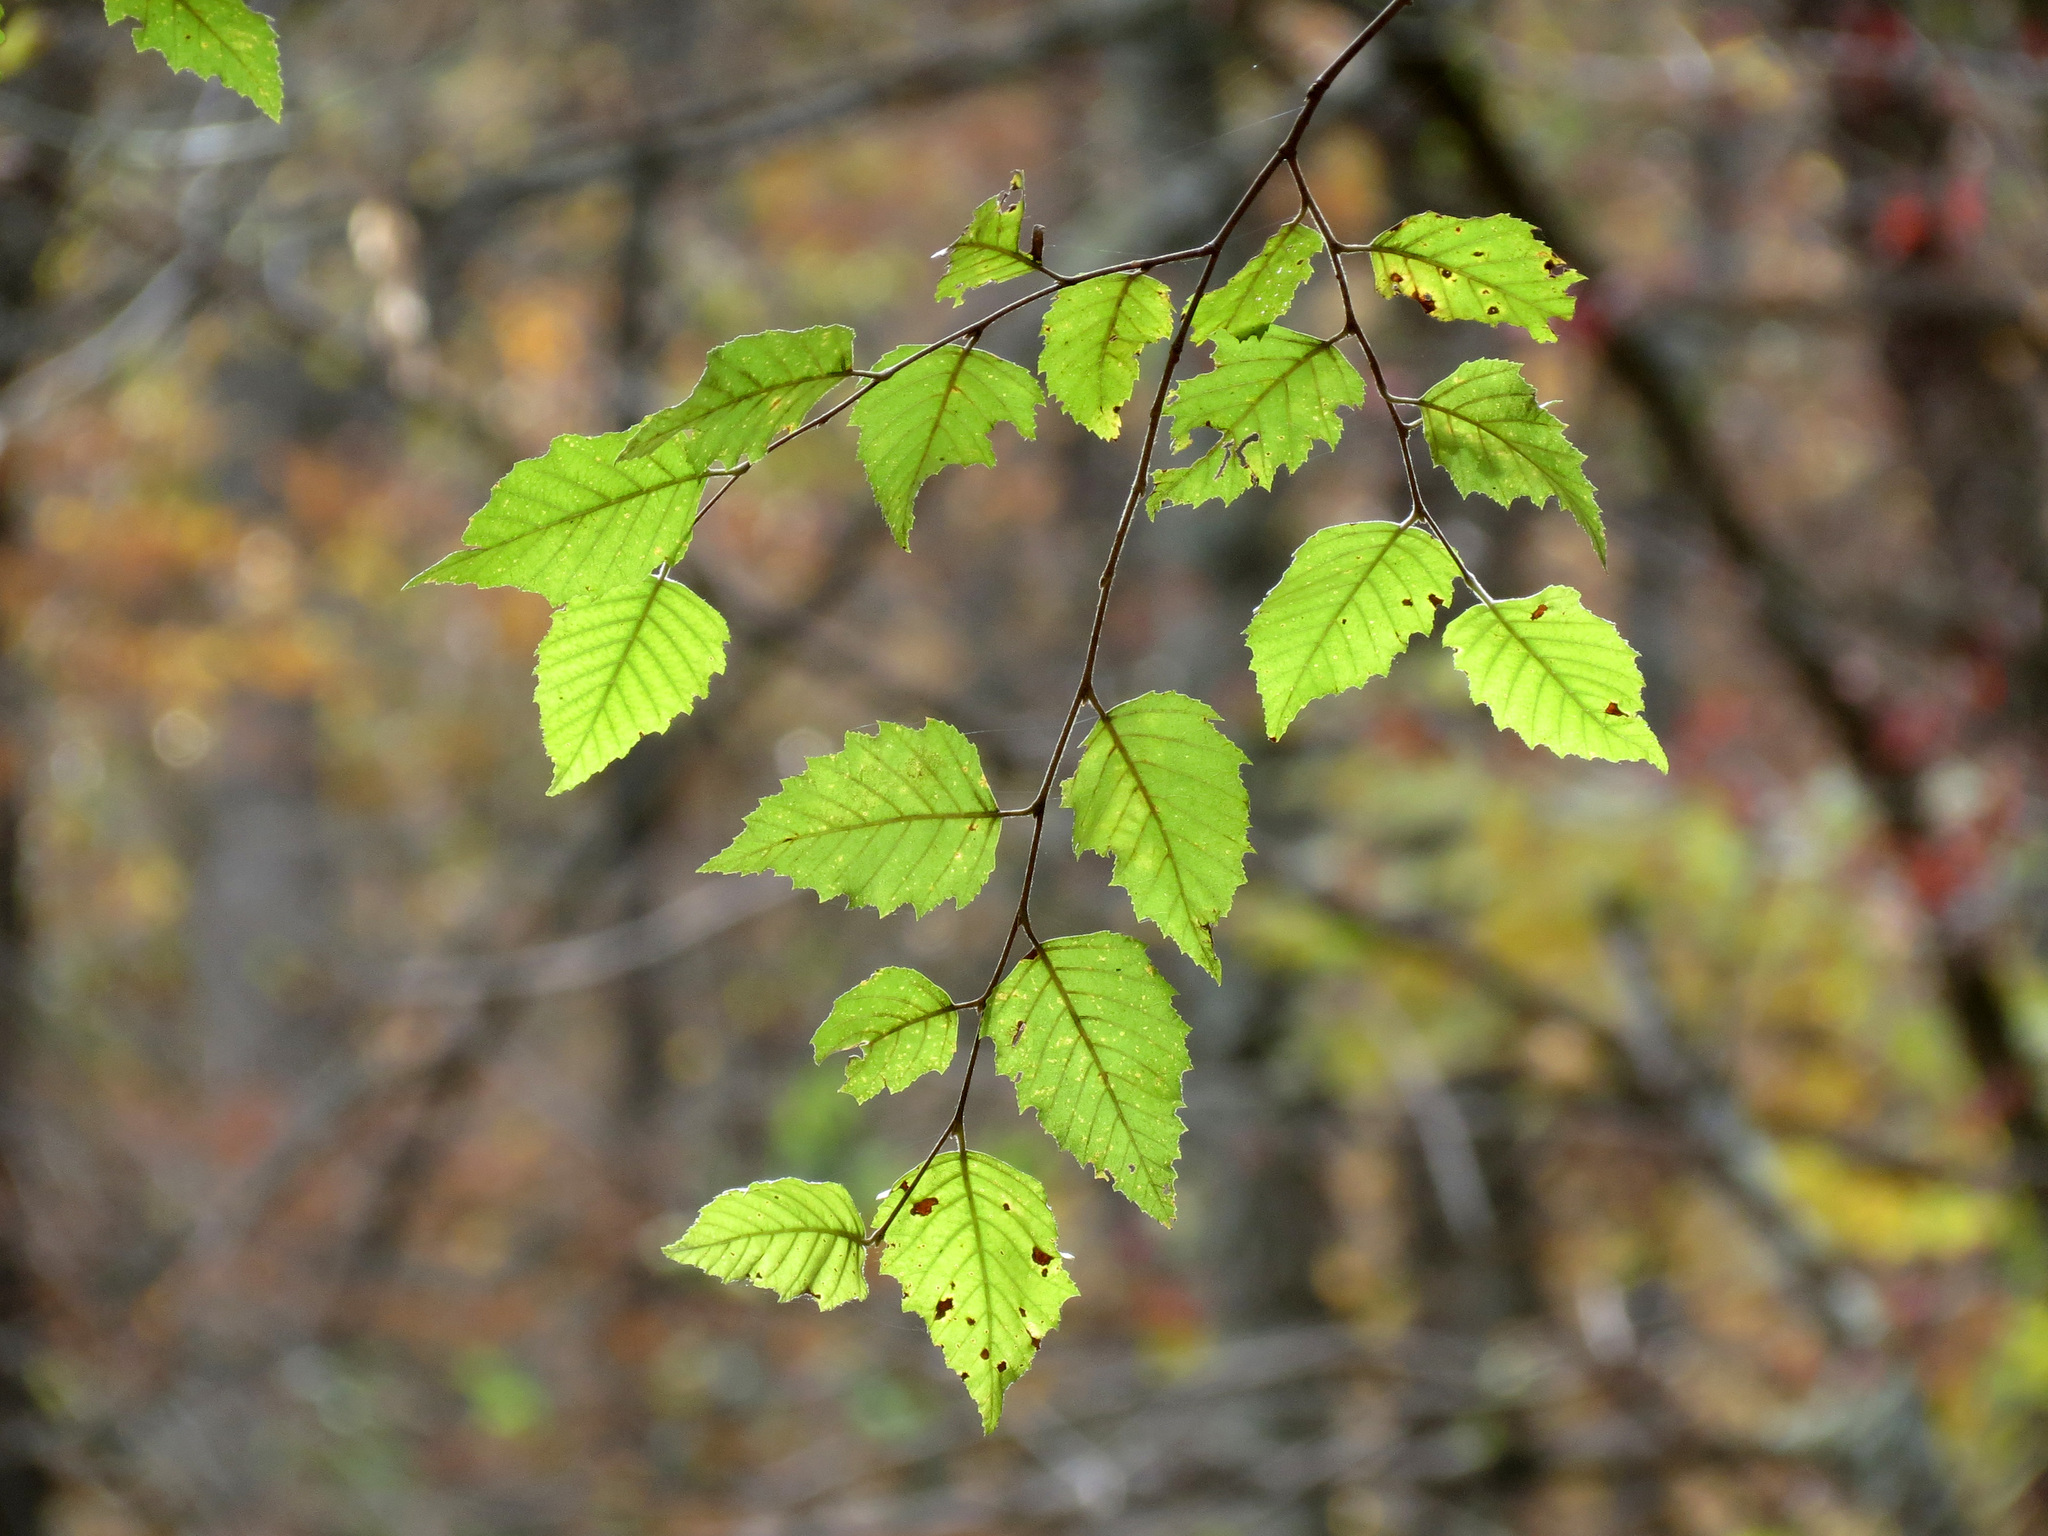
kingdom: Plantae
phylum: Tracheophyta
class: Magnoliopsida
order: Fagales
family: Betulaceae
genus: Betula
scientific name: Betula nigra
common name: Black birch
